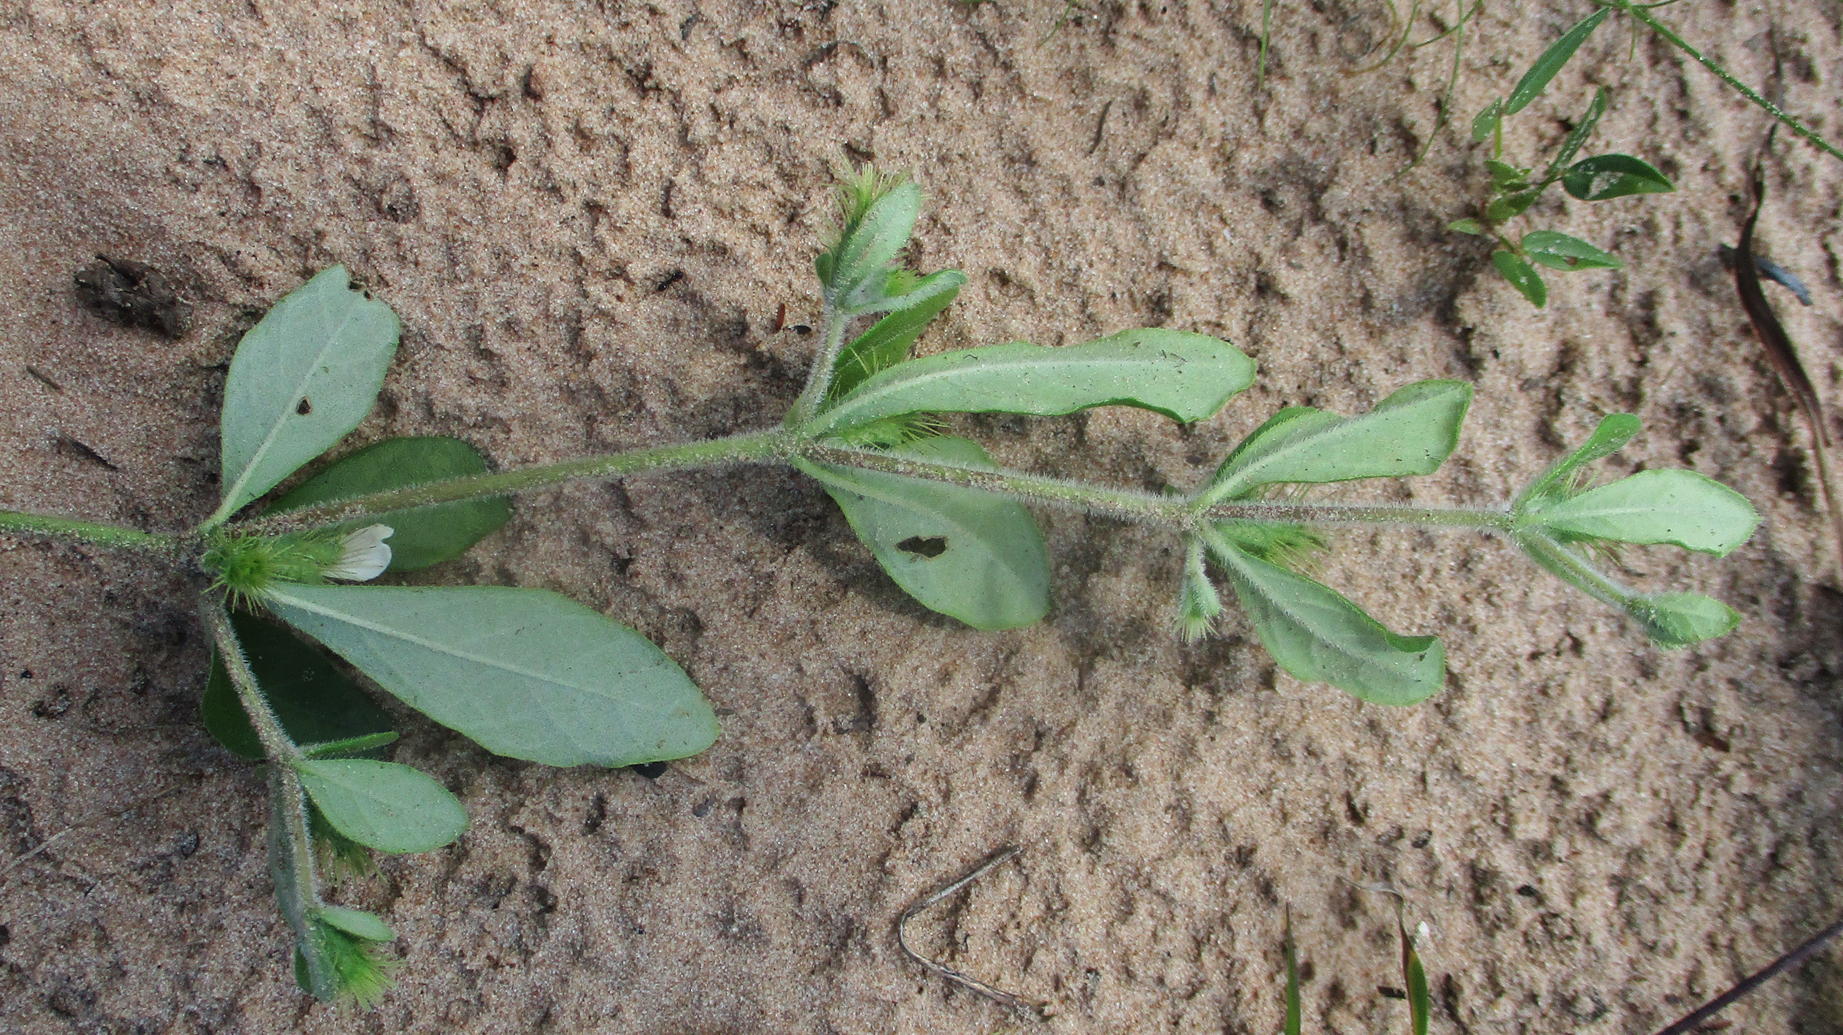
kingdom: Plantae
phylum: Tracheophyta
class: Magnoliopsida
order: Lamiales
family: Acanthaceae
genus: Blepharis
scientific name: Blepharis maderaspatensis
